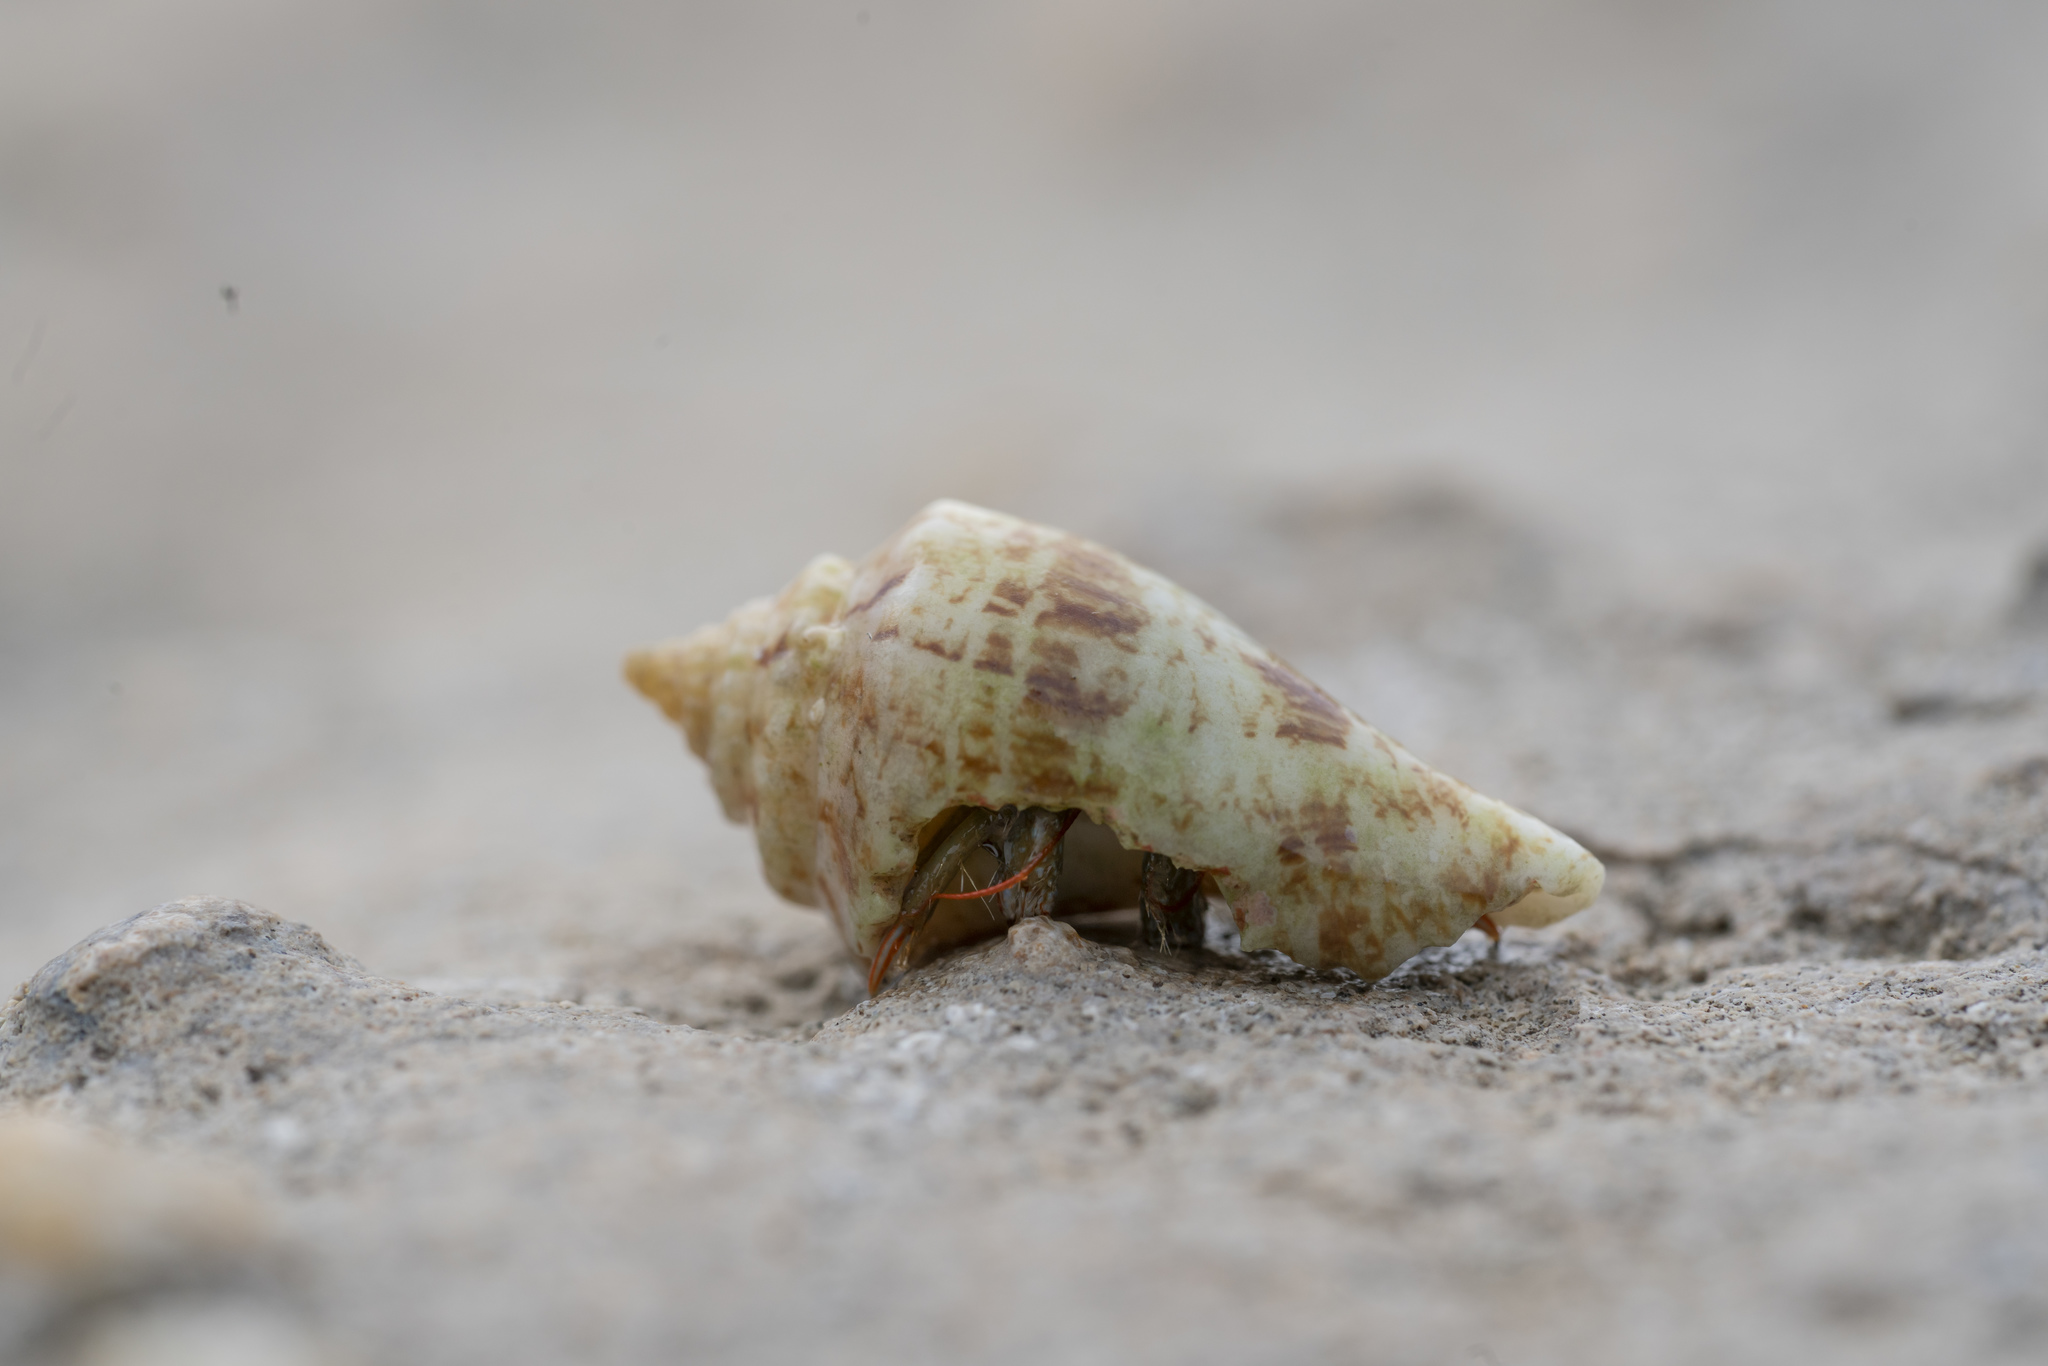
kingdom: Animalia
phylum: Arthropoda
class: Malacostraca
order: Decapoda
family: Diogenidae
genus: Clibanarius
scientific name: Clibanarius erythropus
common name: Hermit crab
